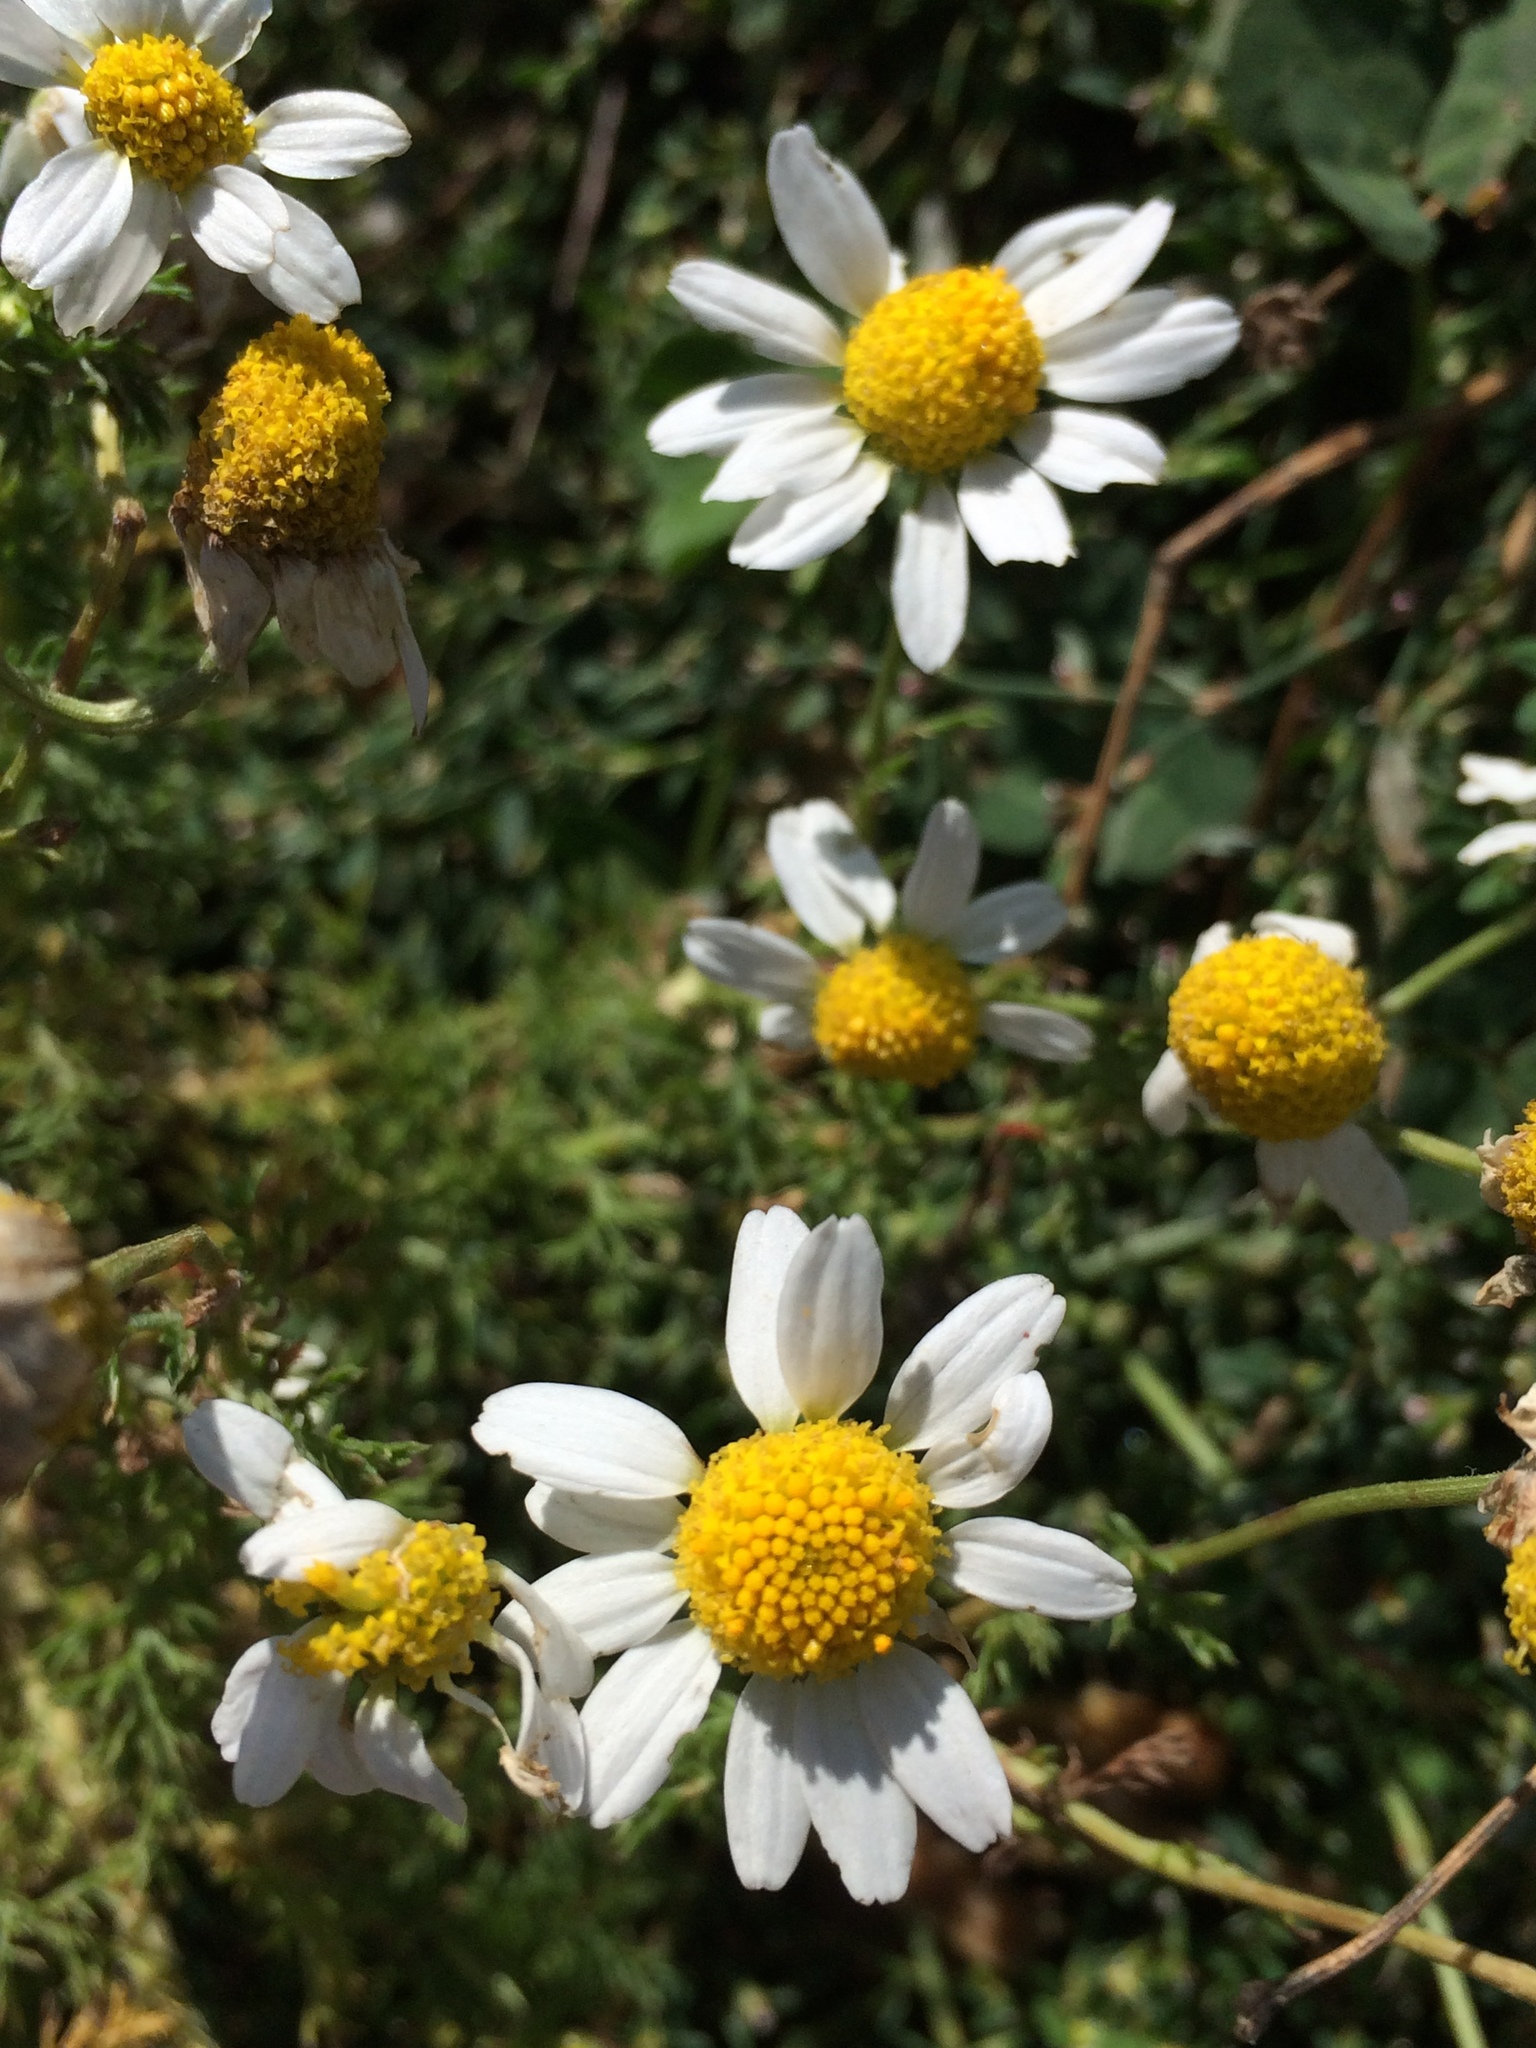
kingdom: Plantae
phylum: Tracheophyta
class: Magnoliopsida
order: Asterales
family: Asteraceae
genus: Anthemis
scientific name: Anthemis cotula
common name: Stinking chamomile
